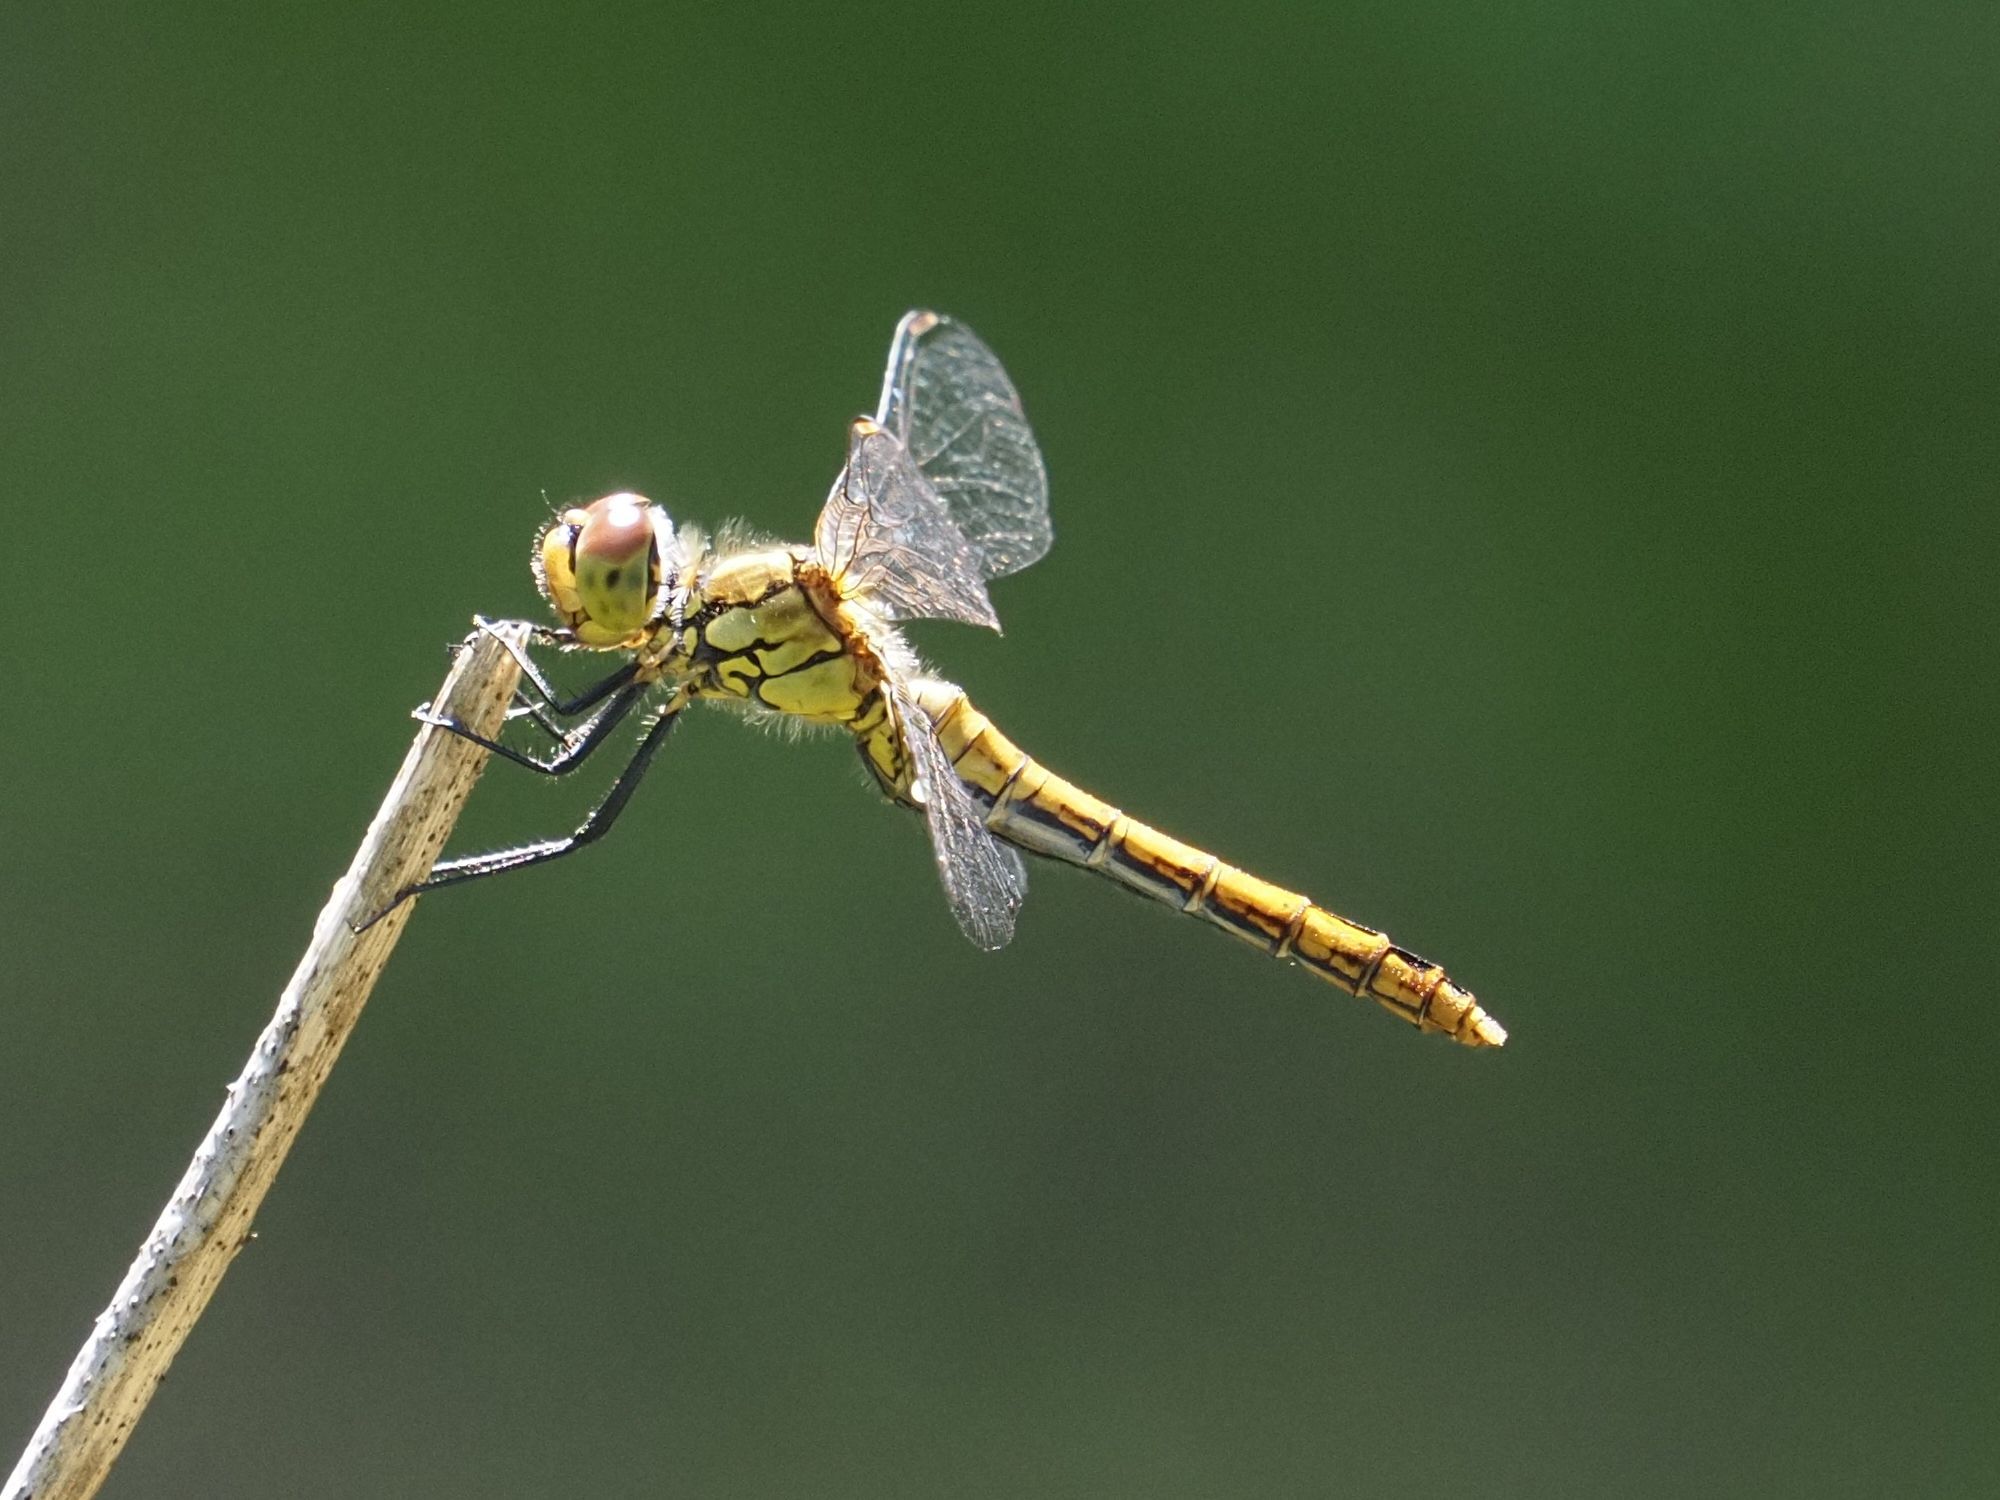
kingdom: Animalia
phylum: Arthropoda
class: Insecta
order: Odonata
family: Libellulidae
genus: Sympetrum
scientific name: Sympetrum sanguineum
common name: Ruddy darter
